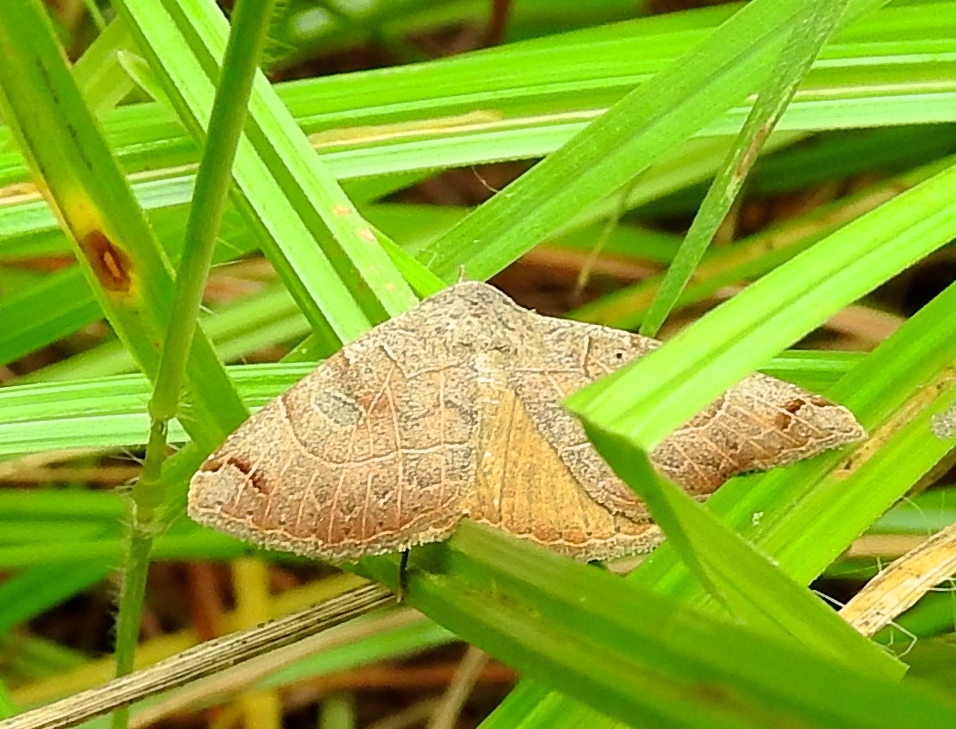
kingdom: Animalia
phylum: Arthropoda
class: Insecta
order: Lepidoptera
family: Erebidae
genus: Isogona
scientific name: Isogona
